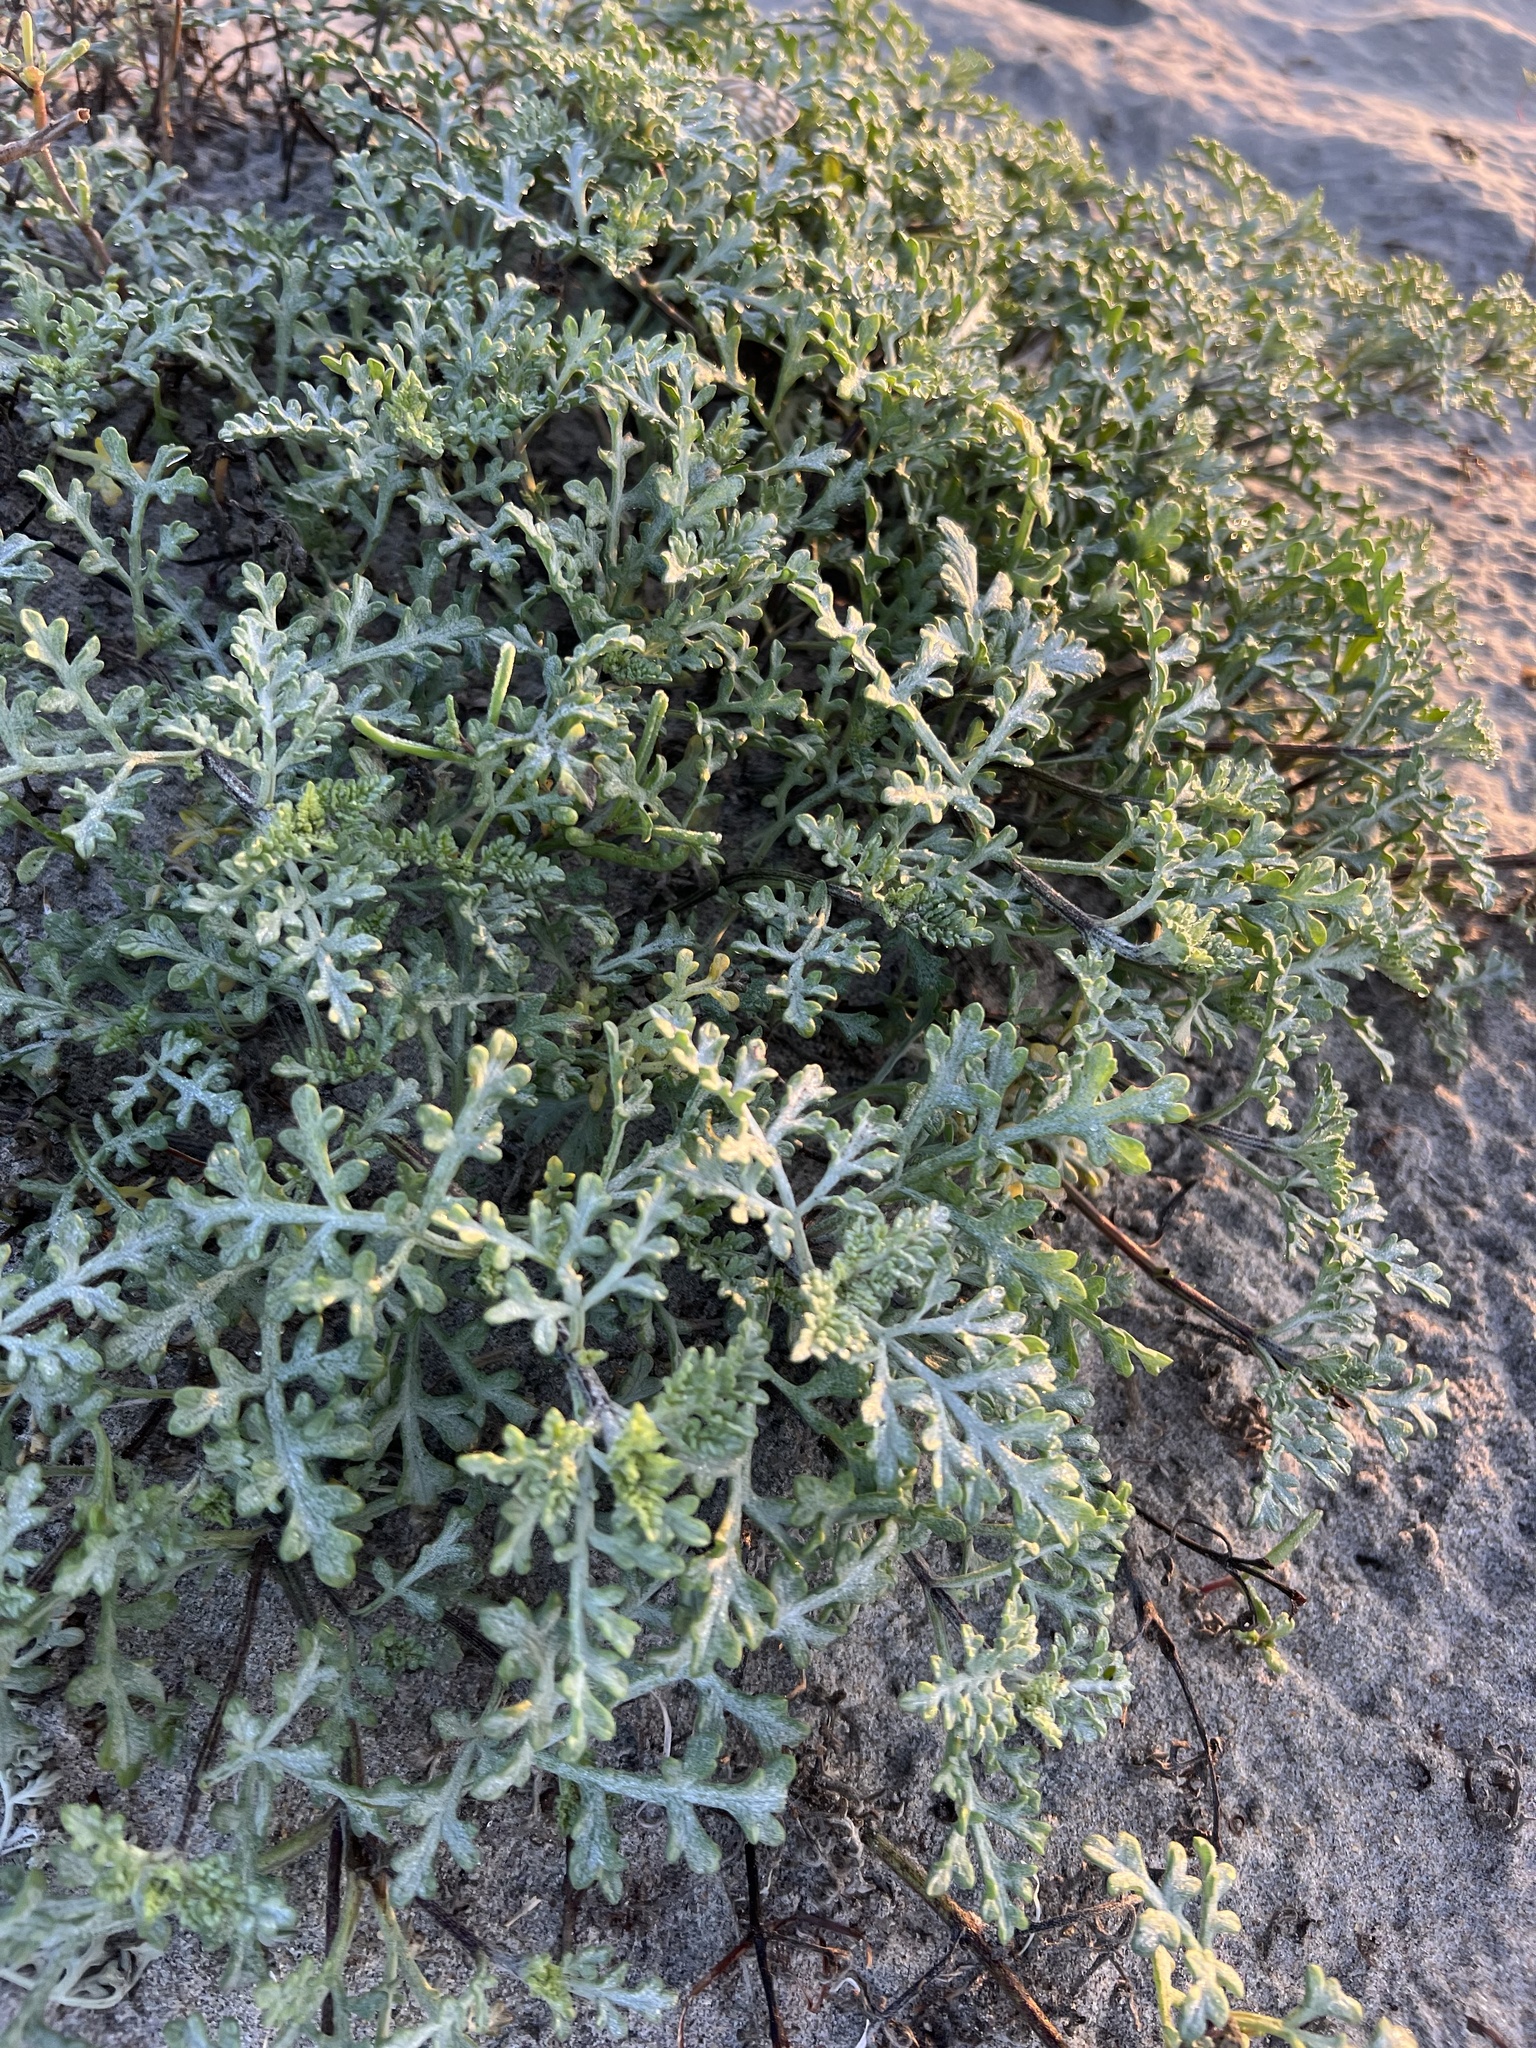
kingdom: Plantae
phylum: Tracheophyta
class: Magnoliopsida
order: Asterales
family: Asteraceae
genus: Ambrosia
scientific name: Ambrosia chamissonis
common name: Beachbur
